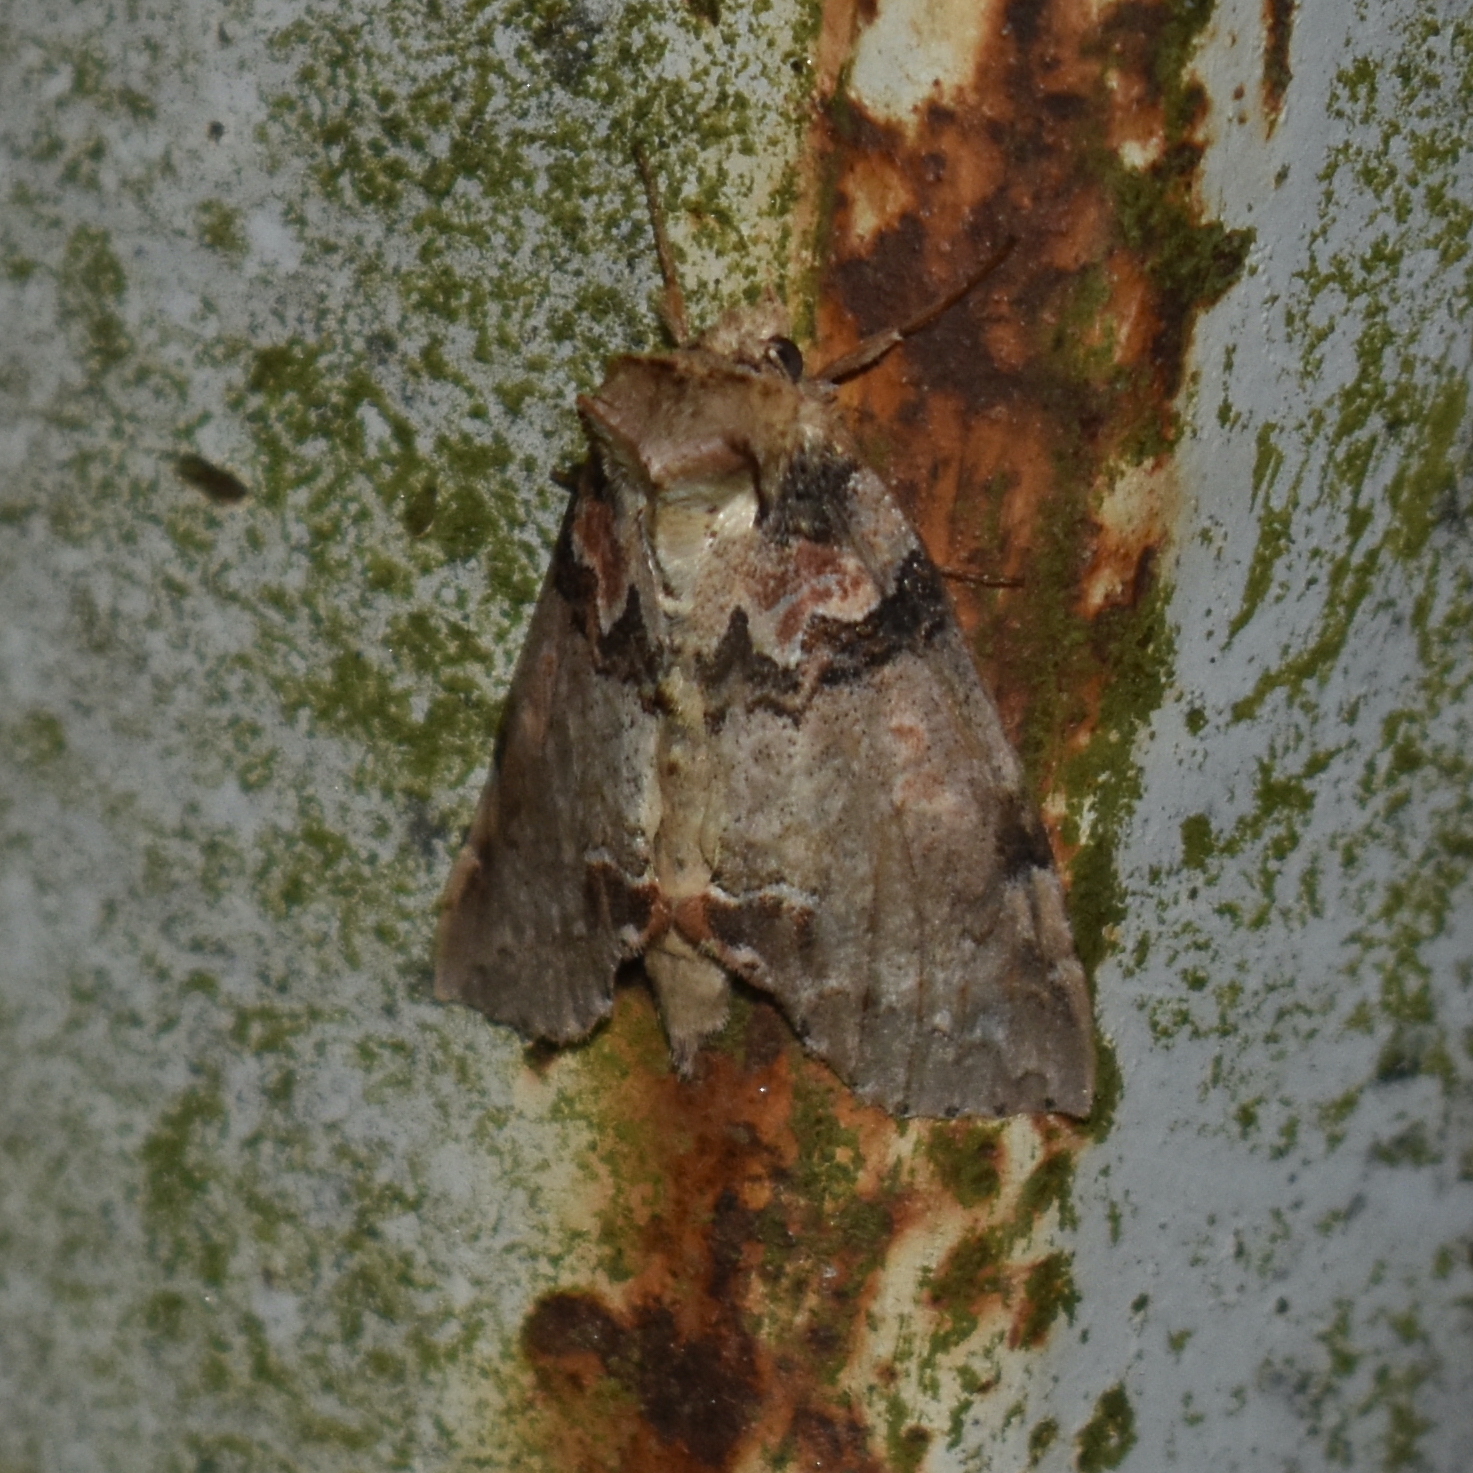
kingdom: Animalia
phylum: Arthropoda
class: Insecta
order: Lepidoptera
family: Drepanidae
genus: Pseudothyatira
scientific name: Pseudothyatira cymatophoroides
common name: Tufted thyatirid moth
